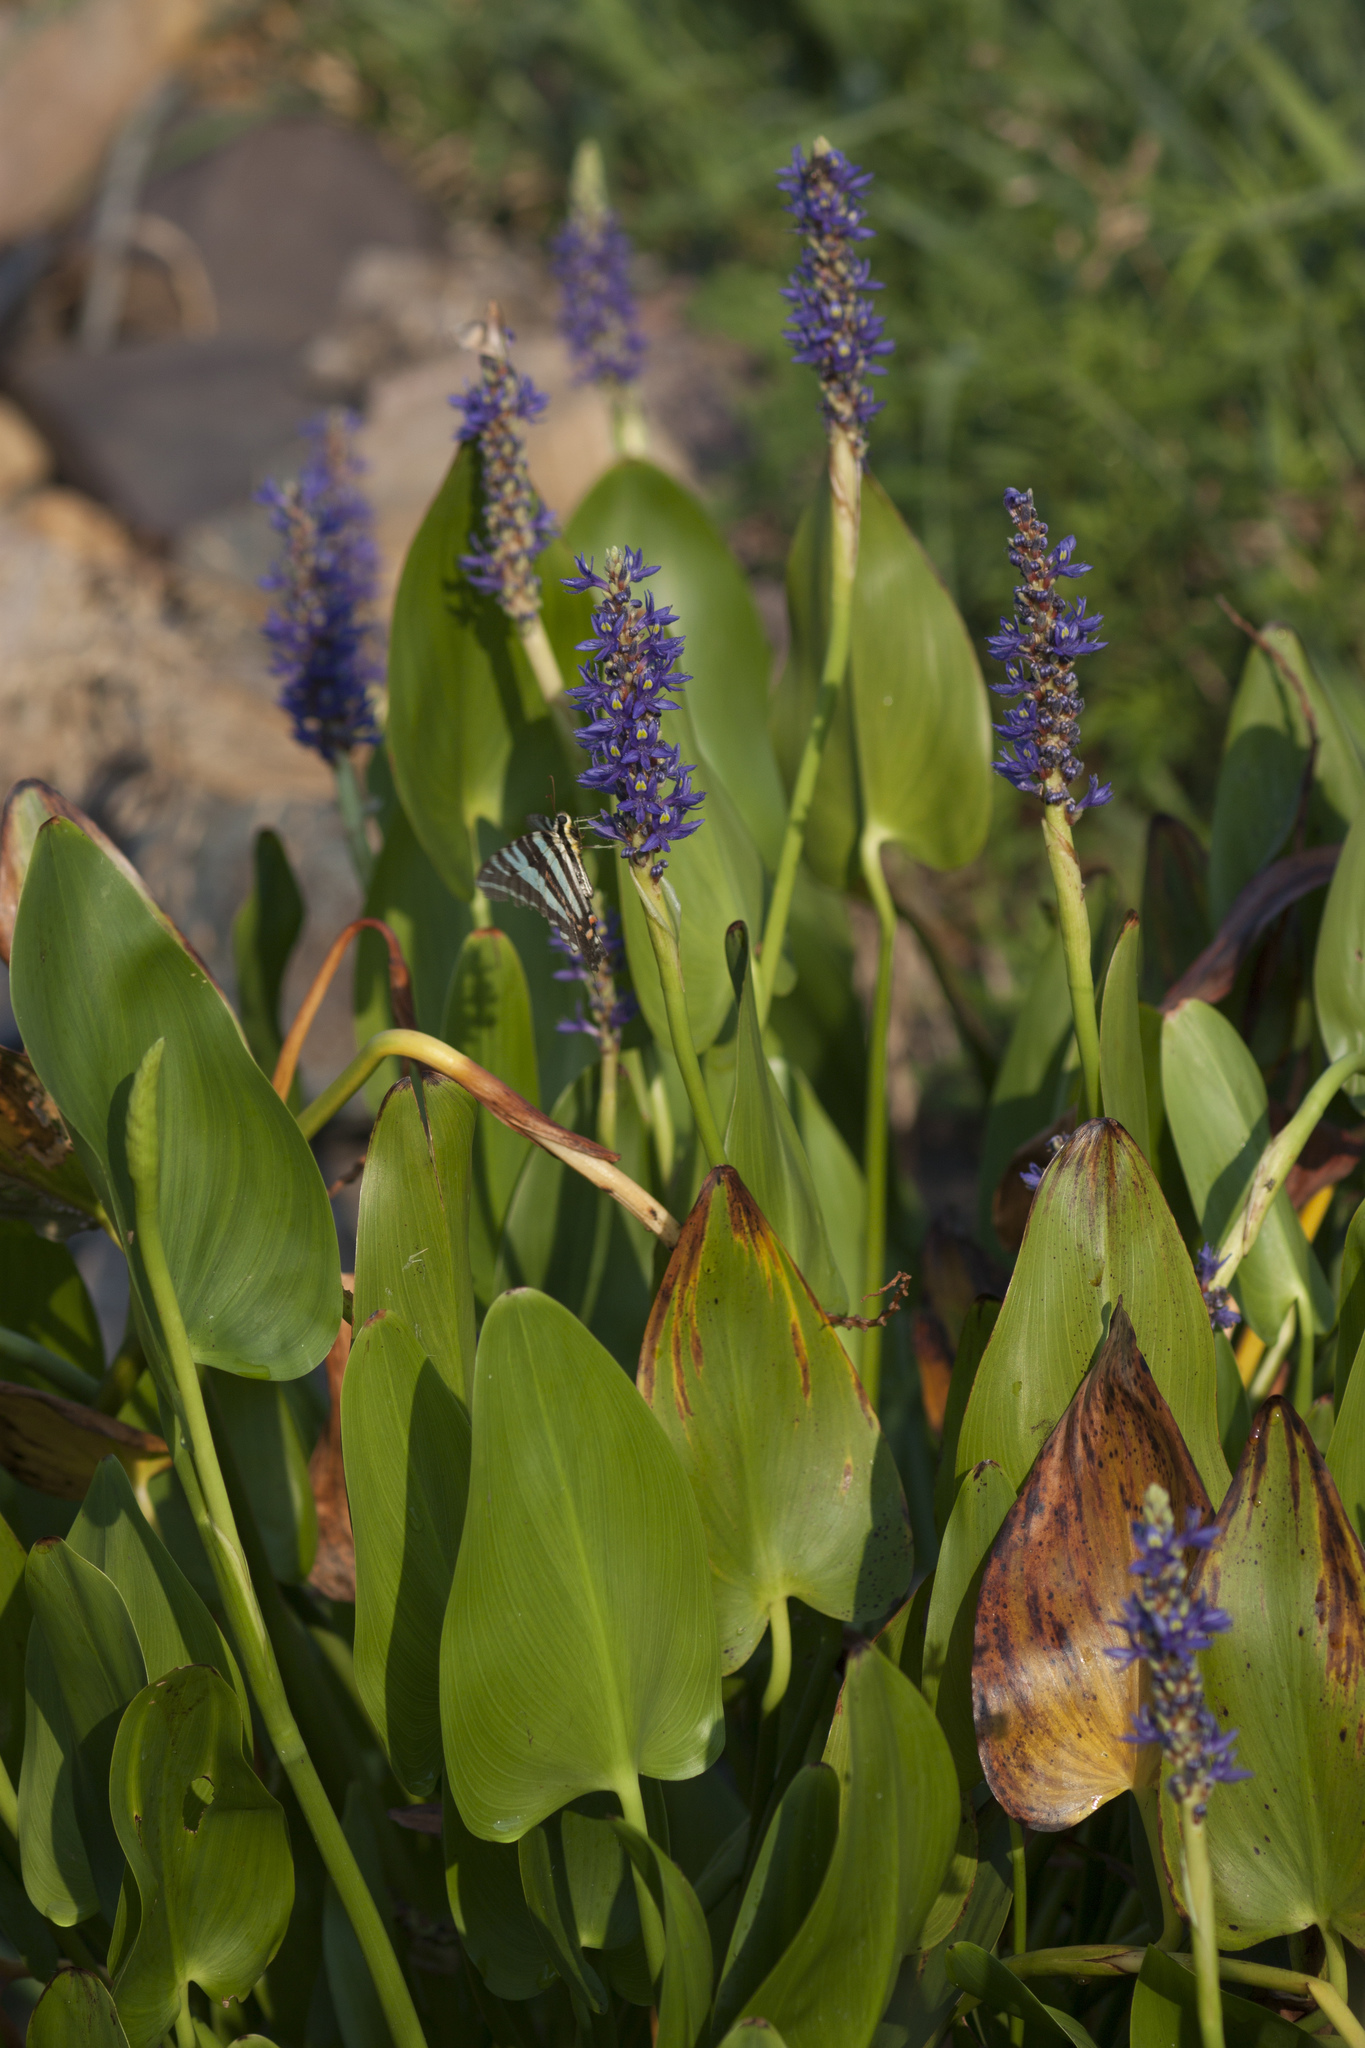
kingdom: Animalia
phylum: Arthropoda
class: Insecta
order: Lepidoptera
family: Papilionidae
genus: Protographium
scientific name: Protographium marcellus
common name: Zebra swallowtail
